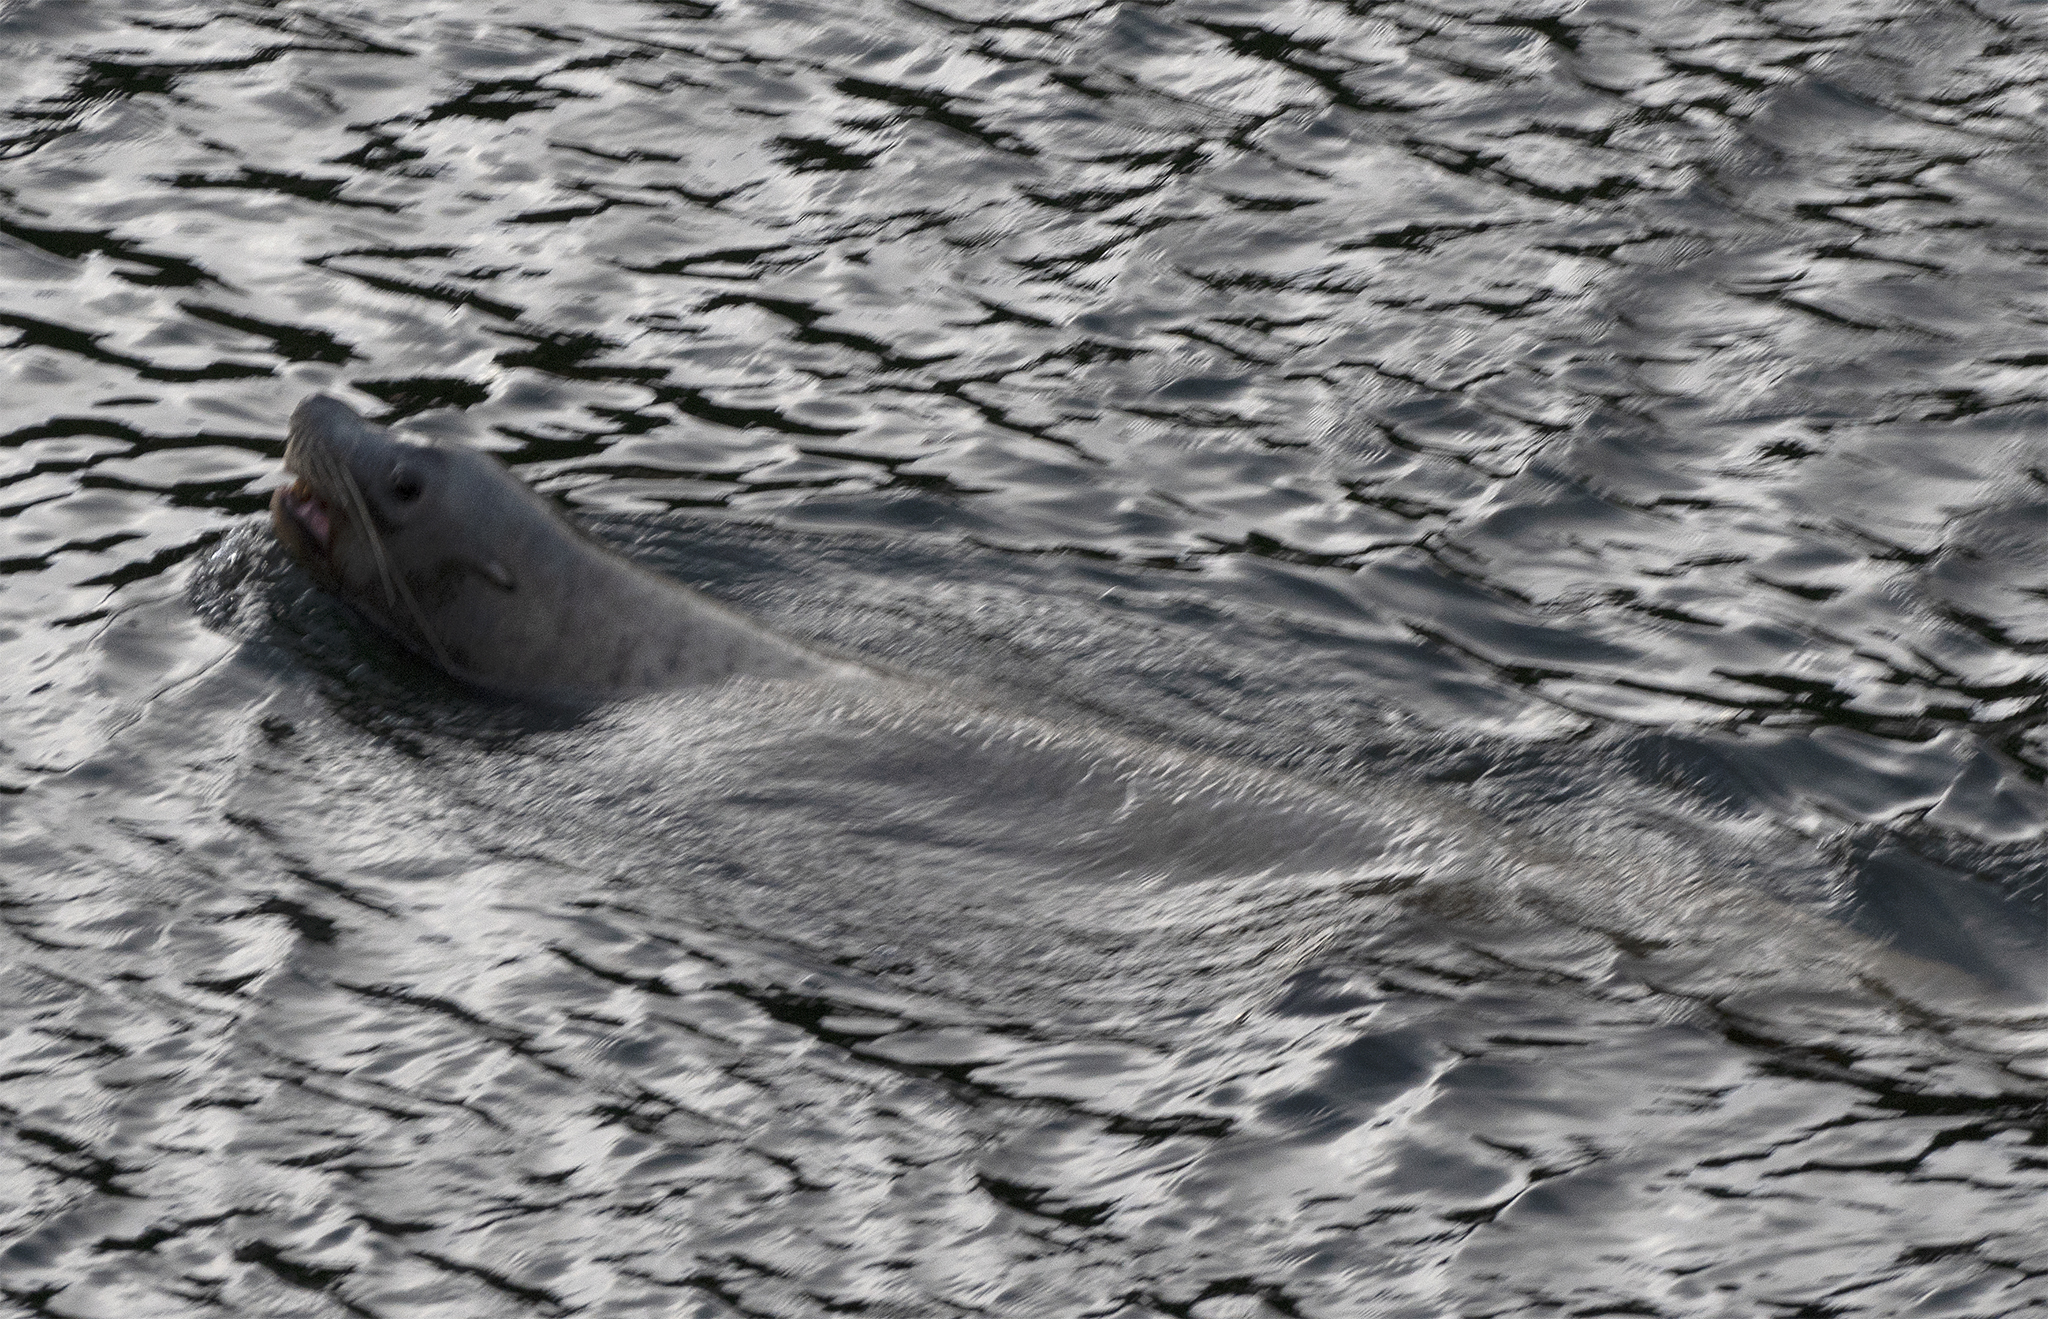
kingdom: Animalia
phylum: Chordata
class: Mammalia
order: Carnivora
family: Otariidae
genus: Eumetopias
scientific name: Eumetopias jubatus
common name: Steller sea lion
